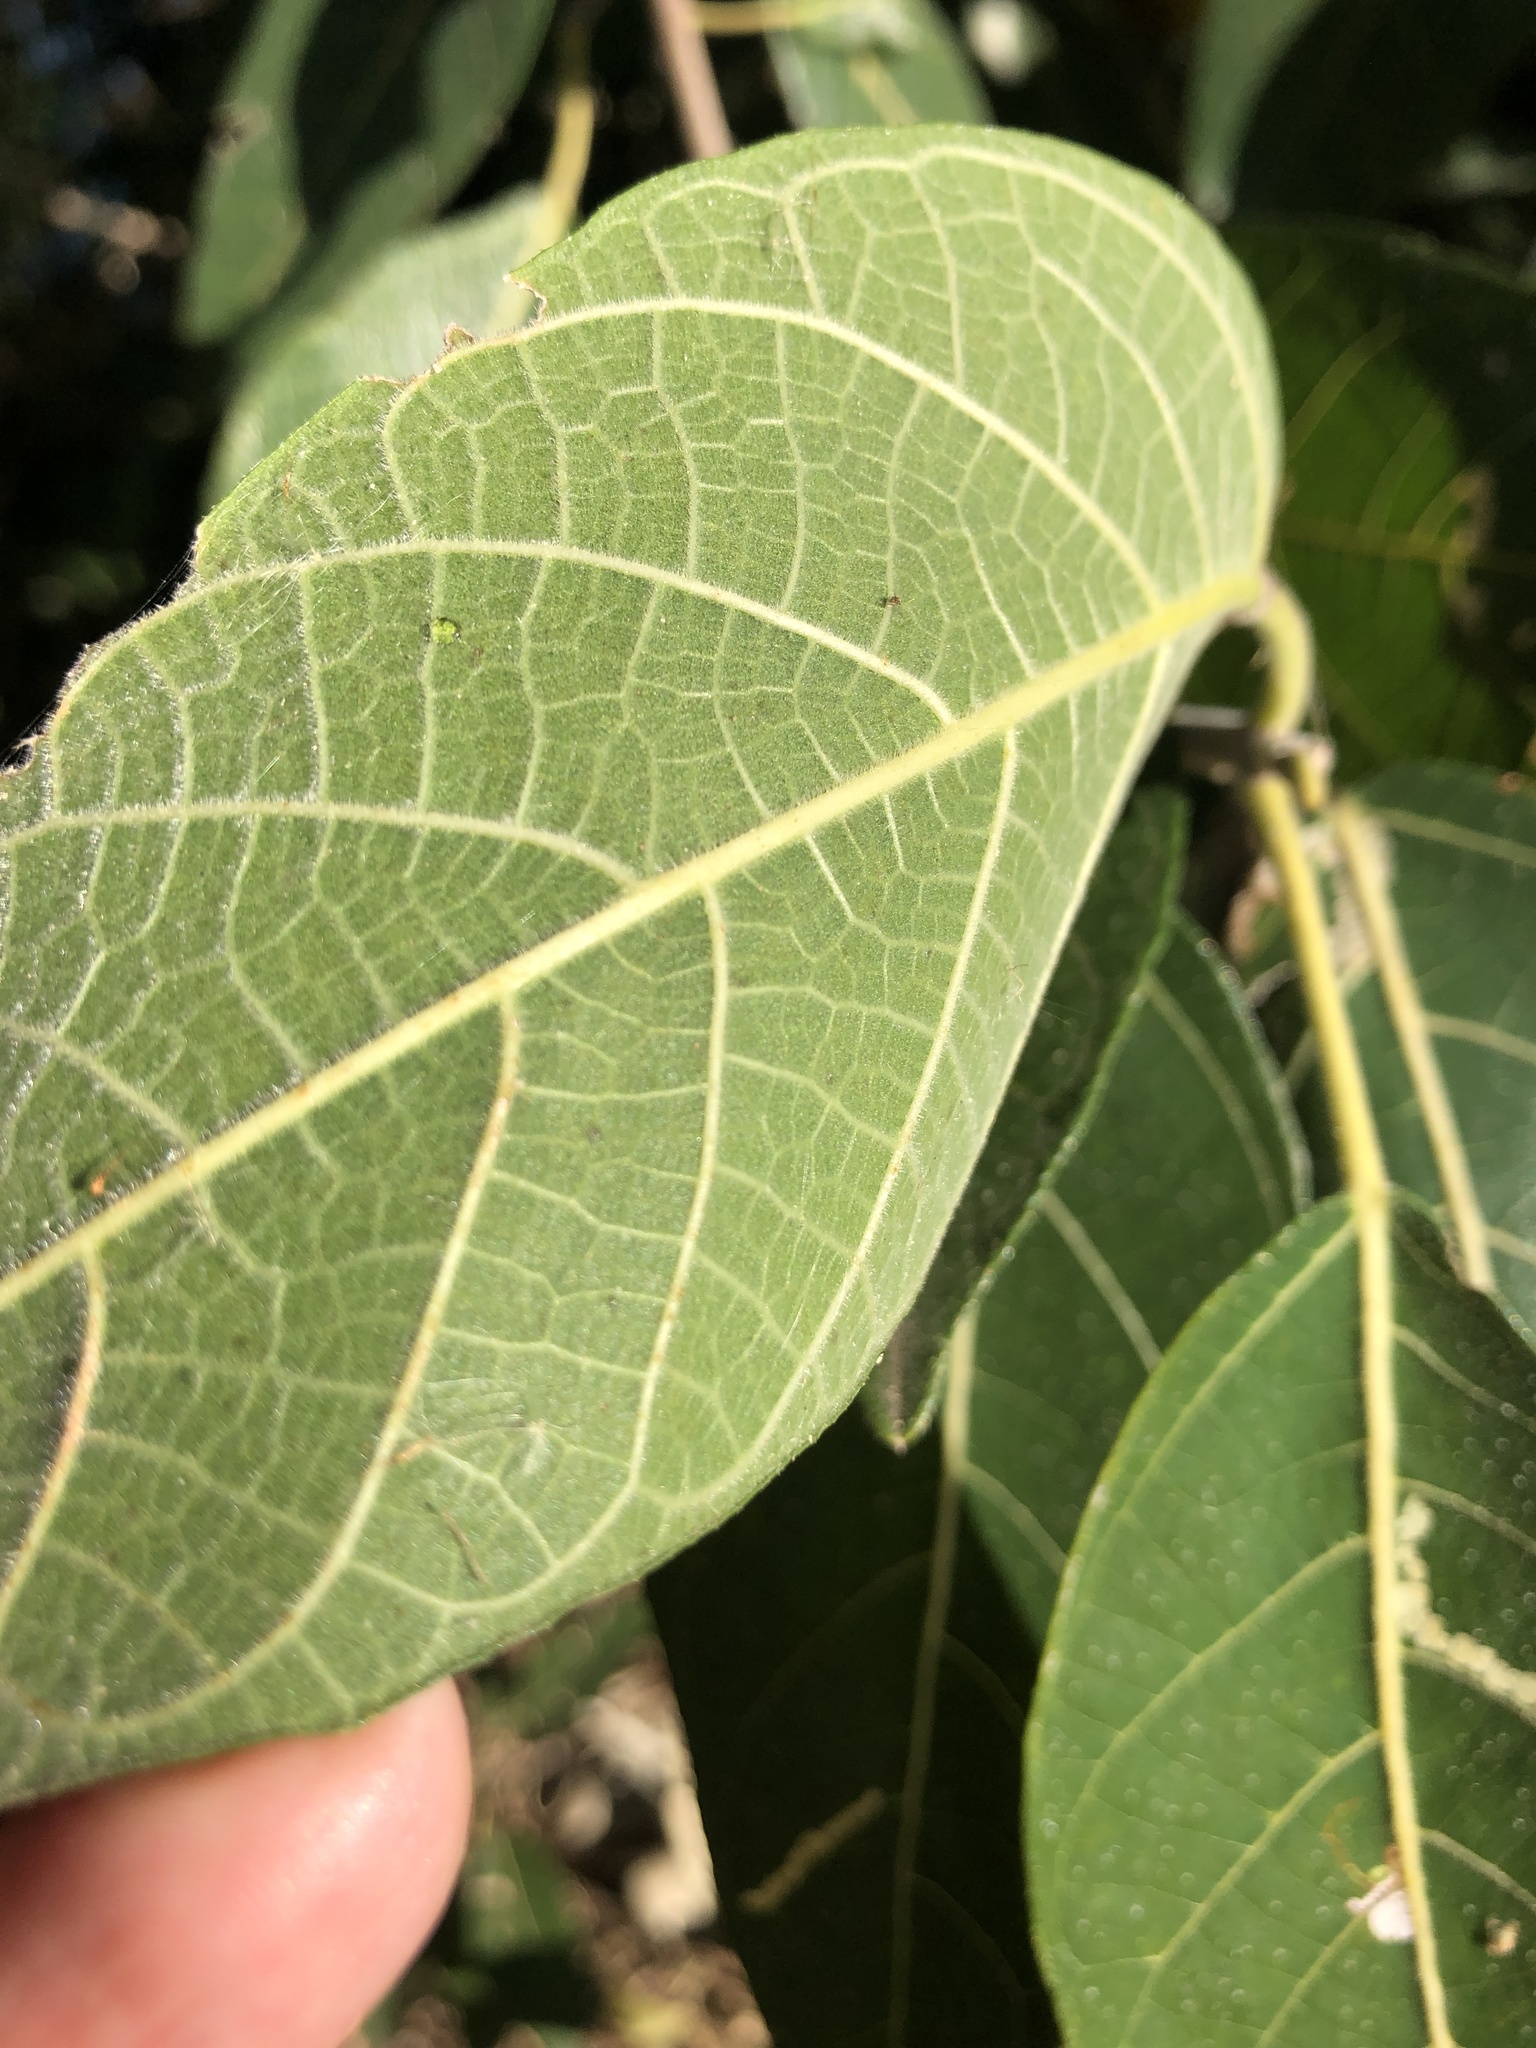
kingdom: Plantae
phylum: Tracheophyta
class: Magnoliopsida
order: Rosales
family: Moraceae
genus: Ficus
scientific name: Ficus opposita
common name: Figwood
